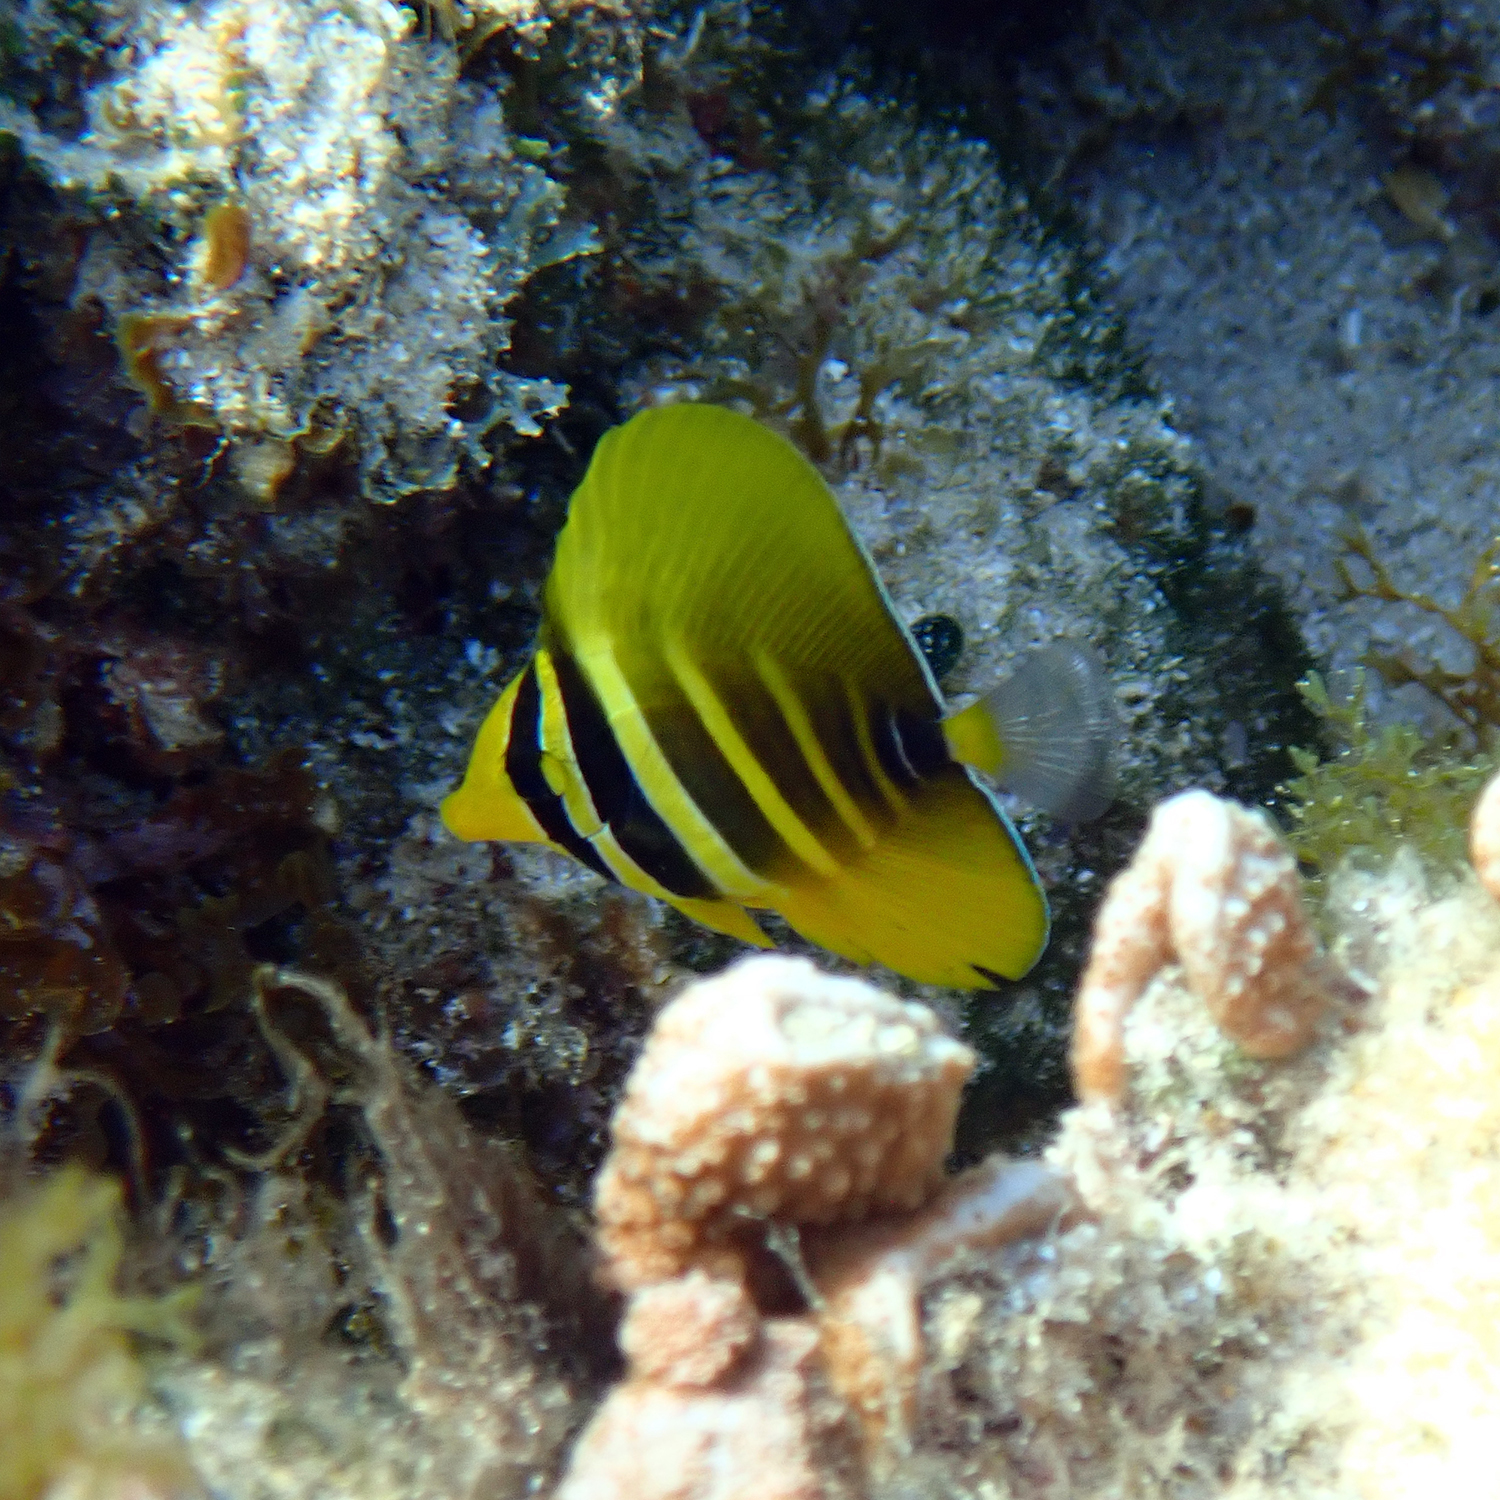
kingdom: Animalia
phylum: Chordata
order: Perciformes
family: Acanthuridae
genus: Zebrasoma
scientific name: Zebrasoma veliferum
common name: Sailfin surgeonfish
